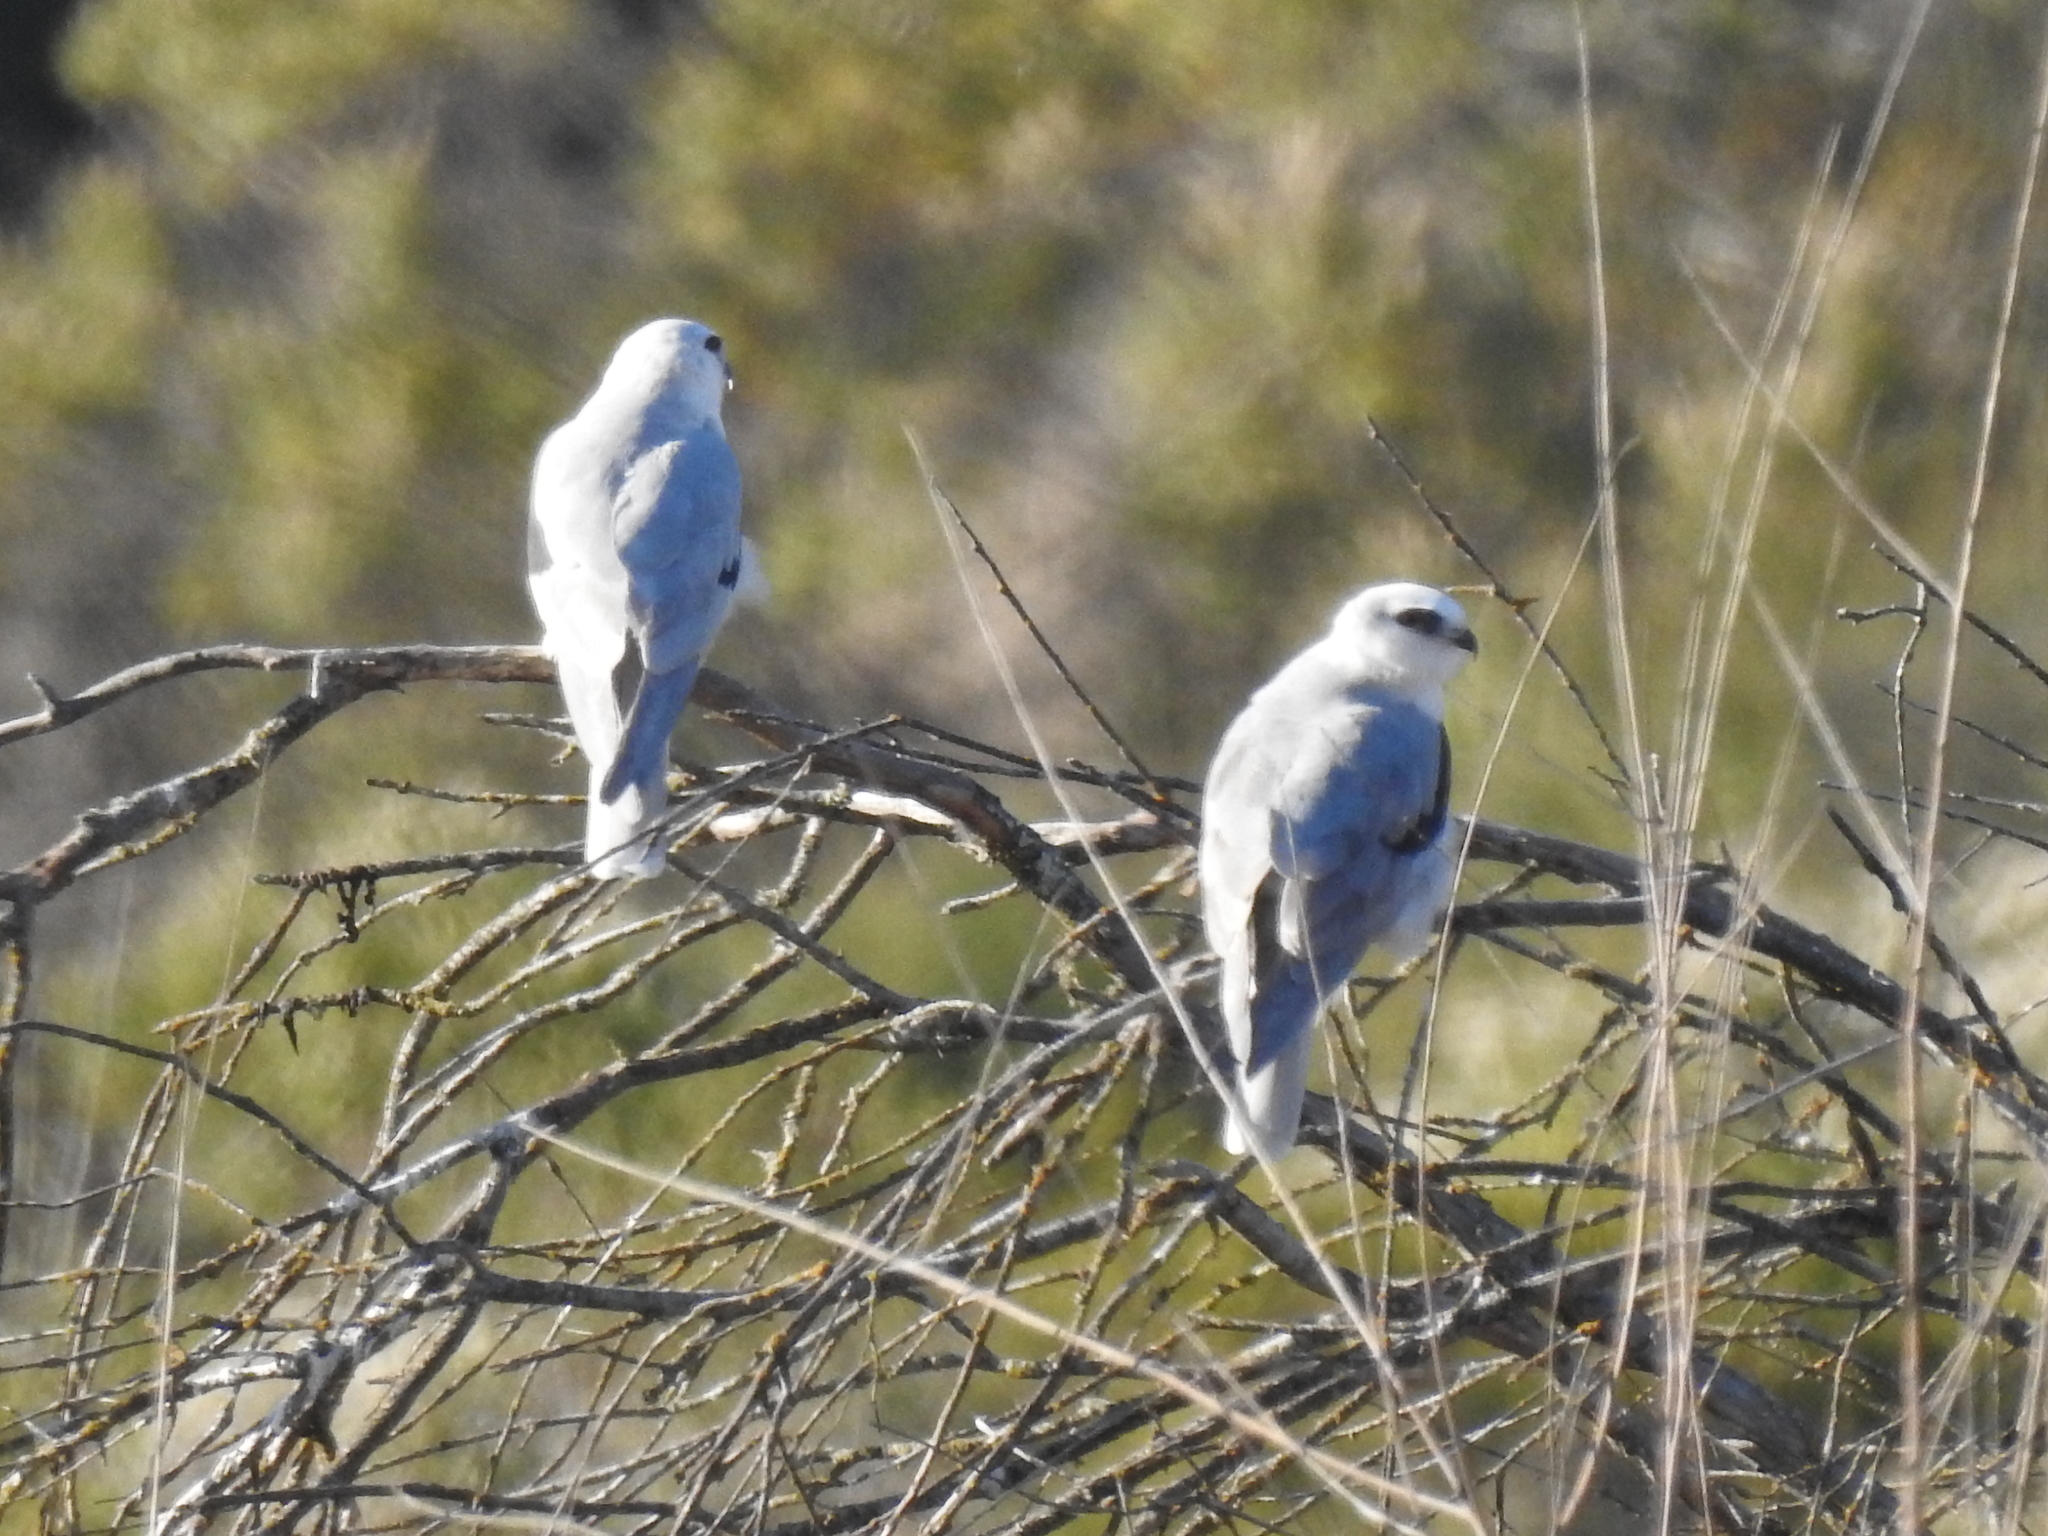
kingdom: Animalia
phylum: Chordata
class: Aves
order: Accipitriformes
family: Accipitridae
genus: Elanus
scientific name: Elanus leucurus
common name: White-tailed kite
